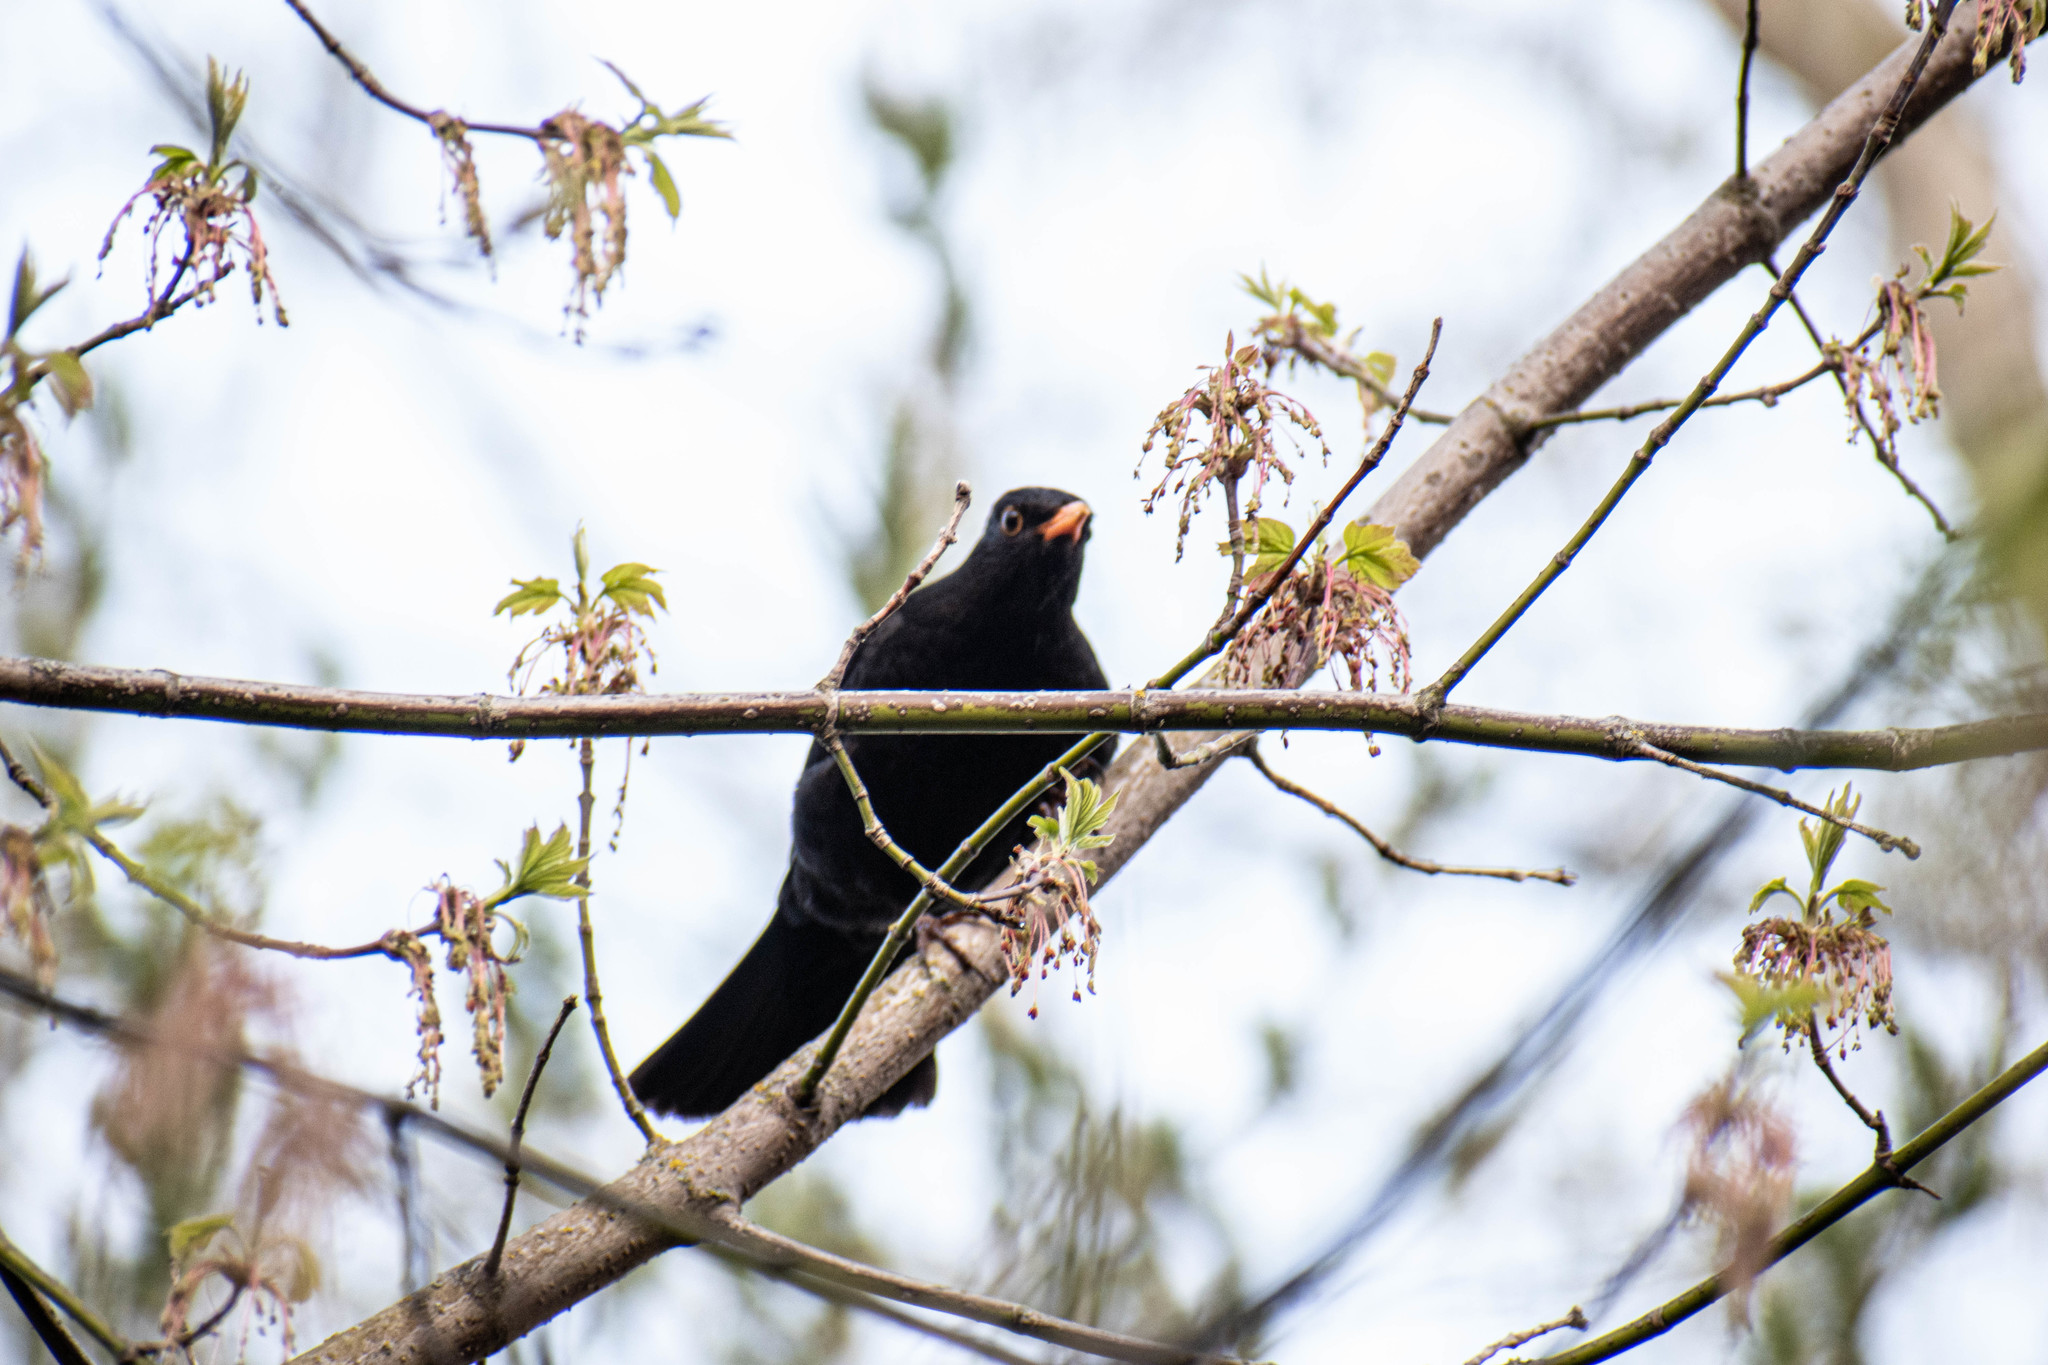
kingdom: Animalia
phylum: Chordata
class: Aves
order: Passeriformes
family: Turdidae
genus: Turdus
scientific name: Turdus merula
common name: Common blackbird
